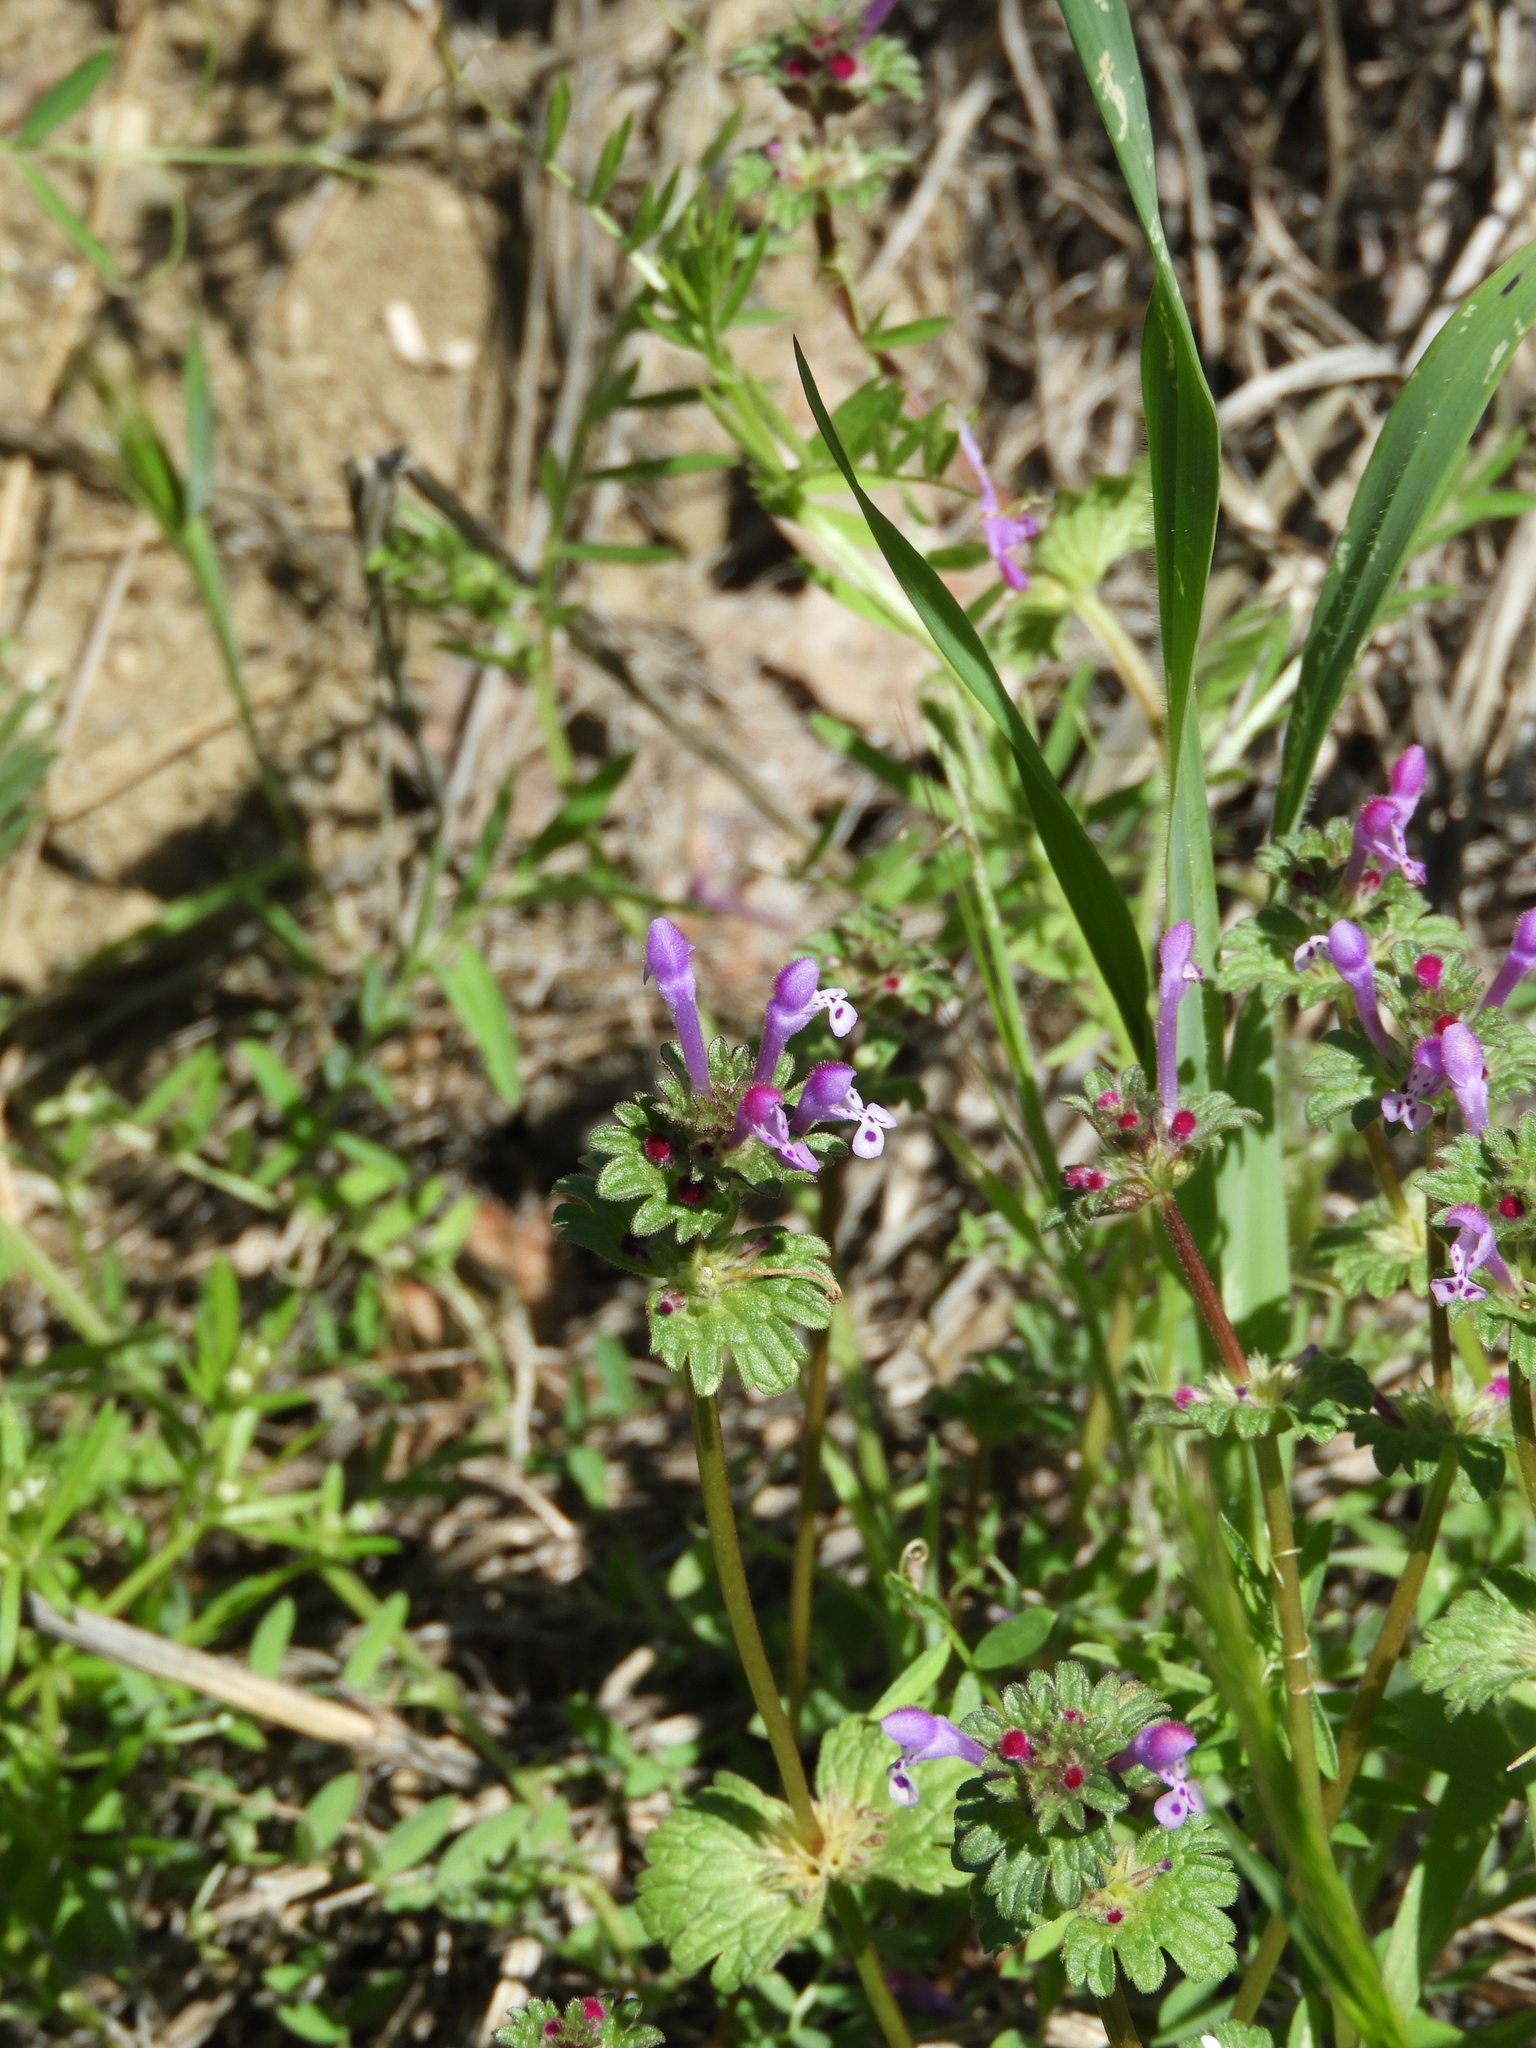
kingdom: Plantae
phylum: Tracheophyta
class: Magnoliopsida
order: Lamiales
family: Lamiaceae
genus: Lamium
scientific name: Lamium amplexicaule
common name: Henbit dead-nettle
